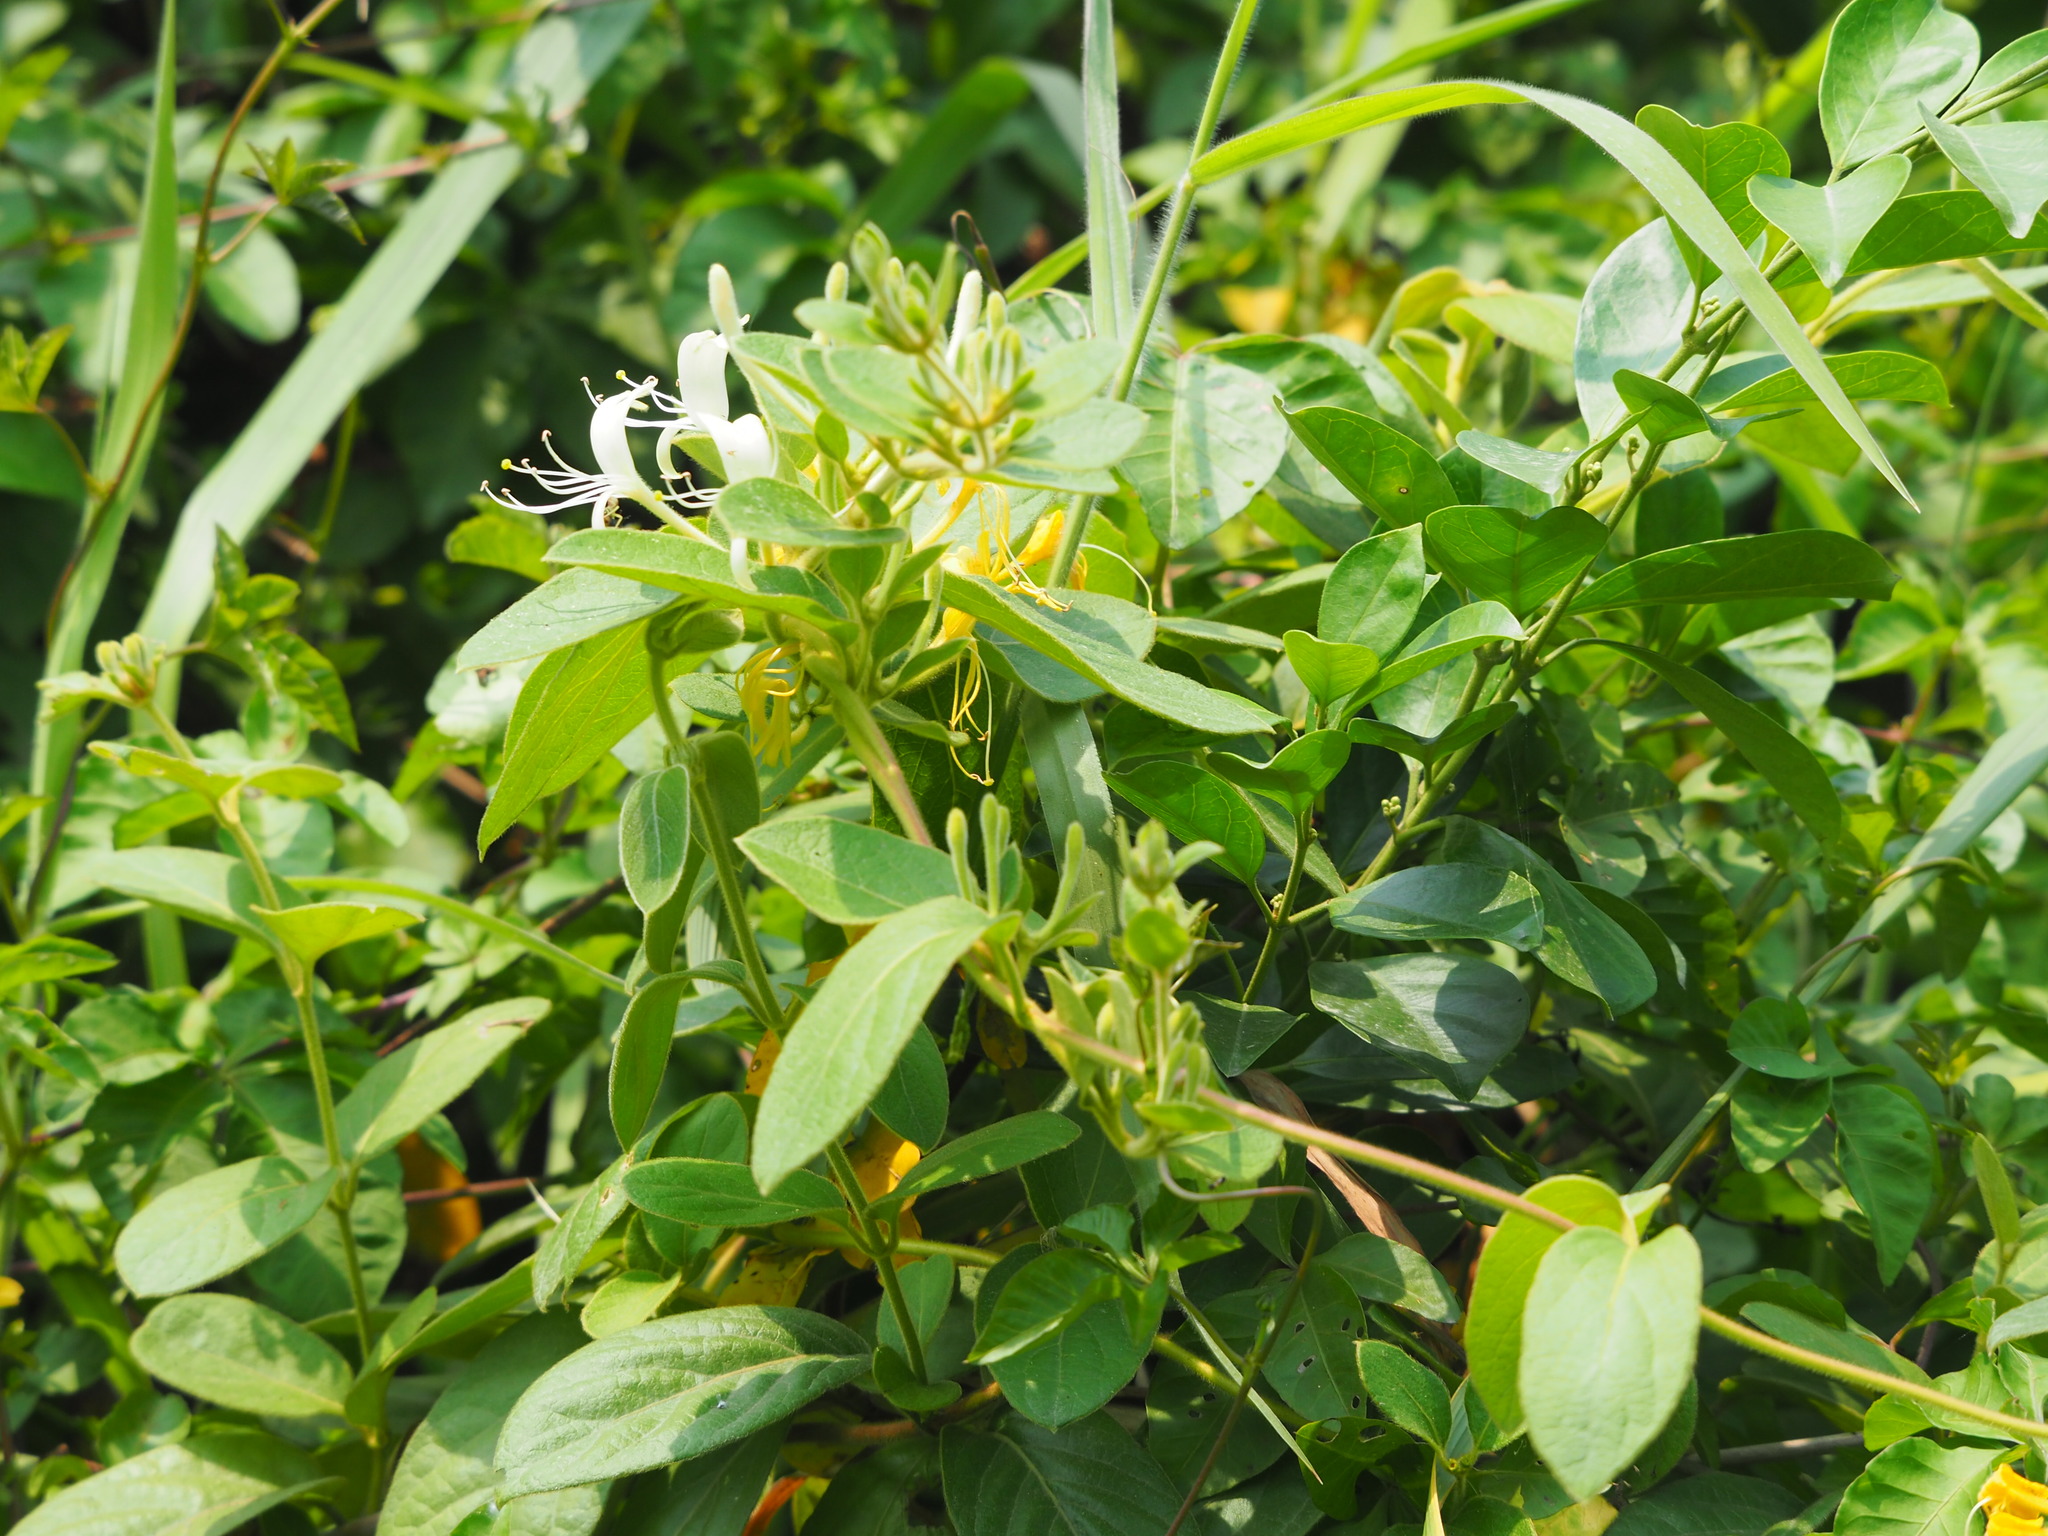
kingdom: Plantae
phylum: Tracheophyta
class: Magnoliopsida
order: Dipsacales
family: Caprifoliaceae
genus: Lonicera
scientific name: Lonicera japonica
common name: Japanese honeysuckle
